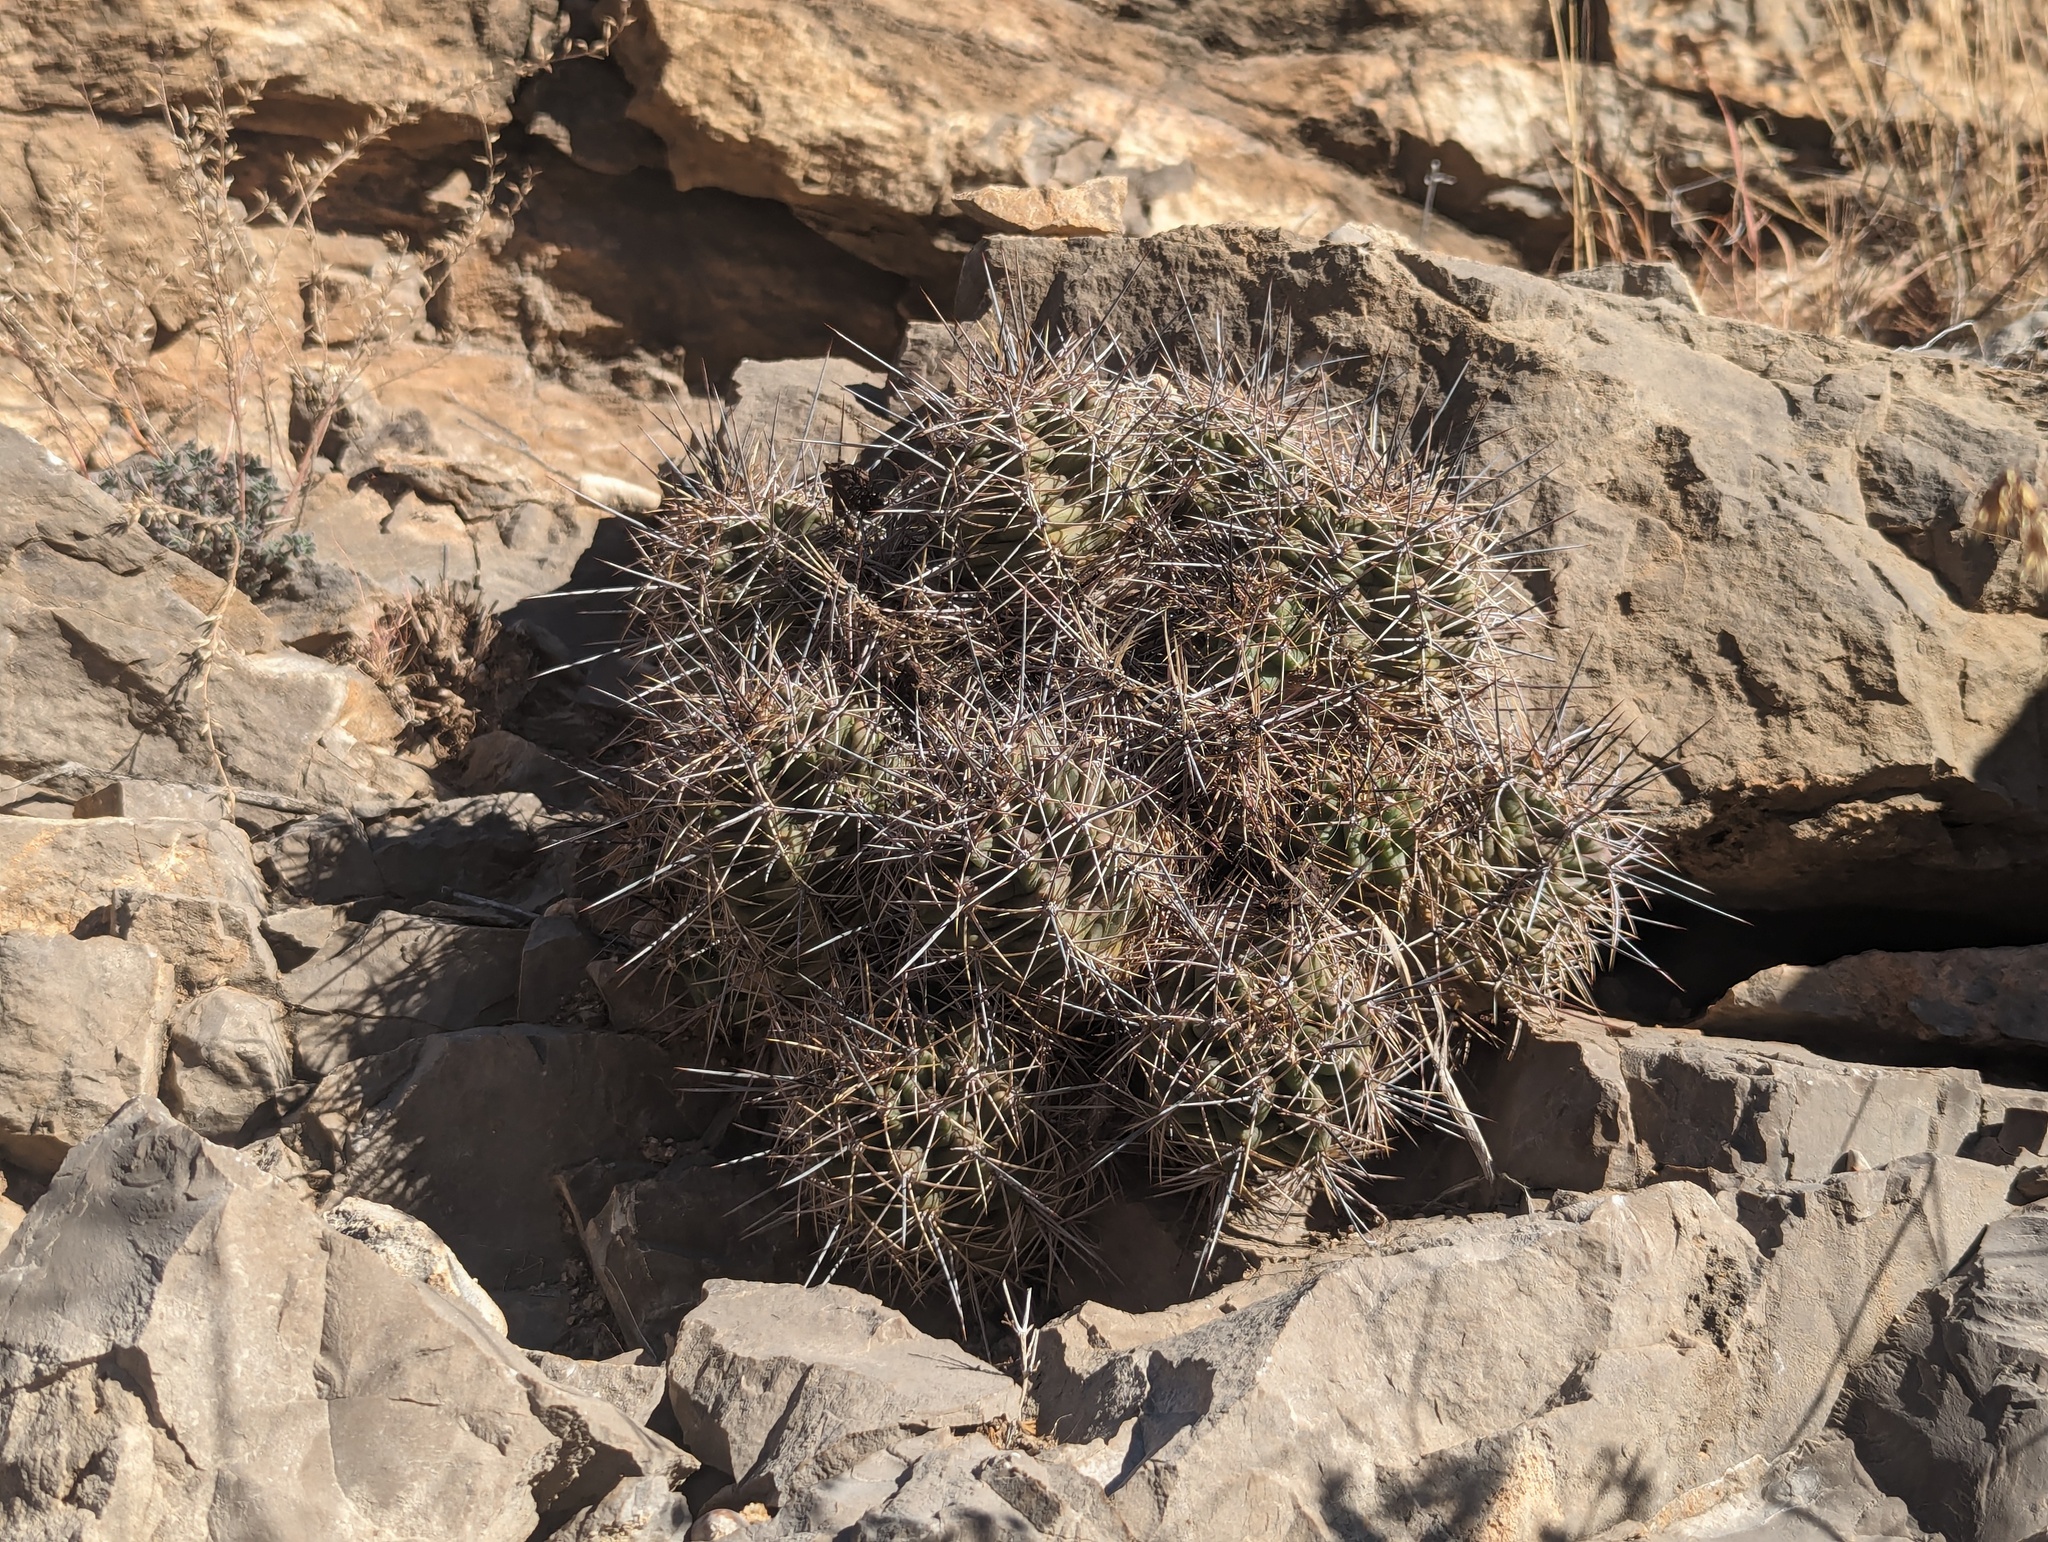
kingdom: Plantae
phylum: Tracheophyta
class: Magnoliopsida
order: Caryophyllales
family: Cactaceae
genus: Echinocereus
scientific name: Echinocereus coccineus
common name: Scarlet hedgehog cactus
